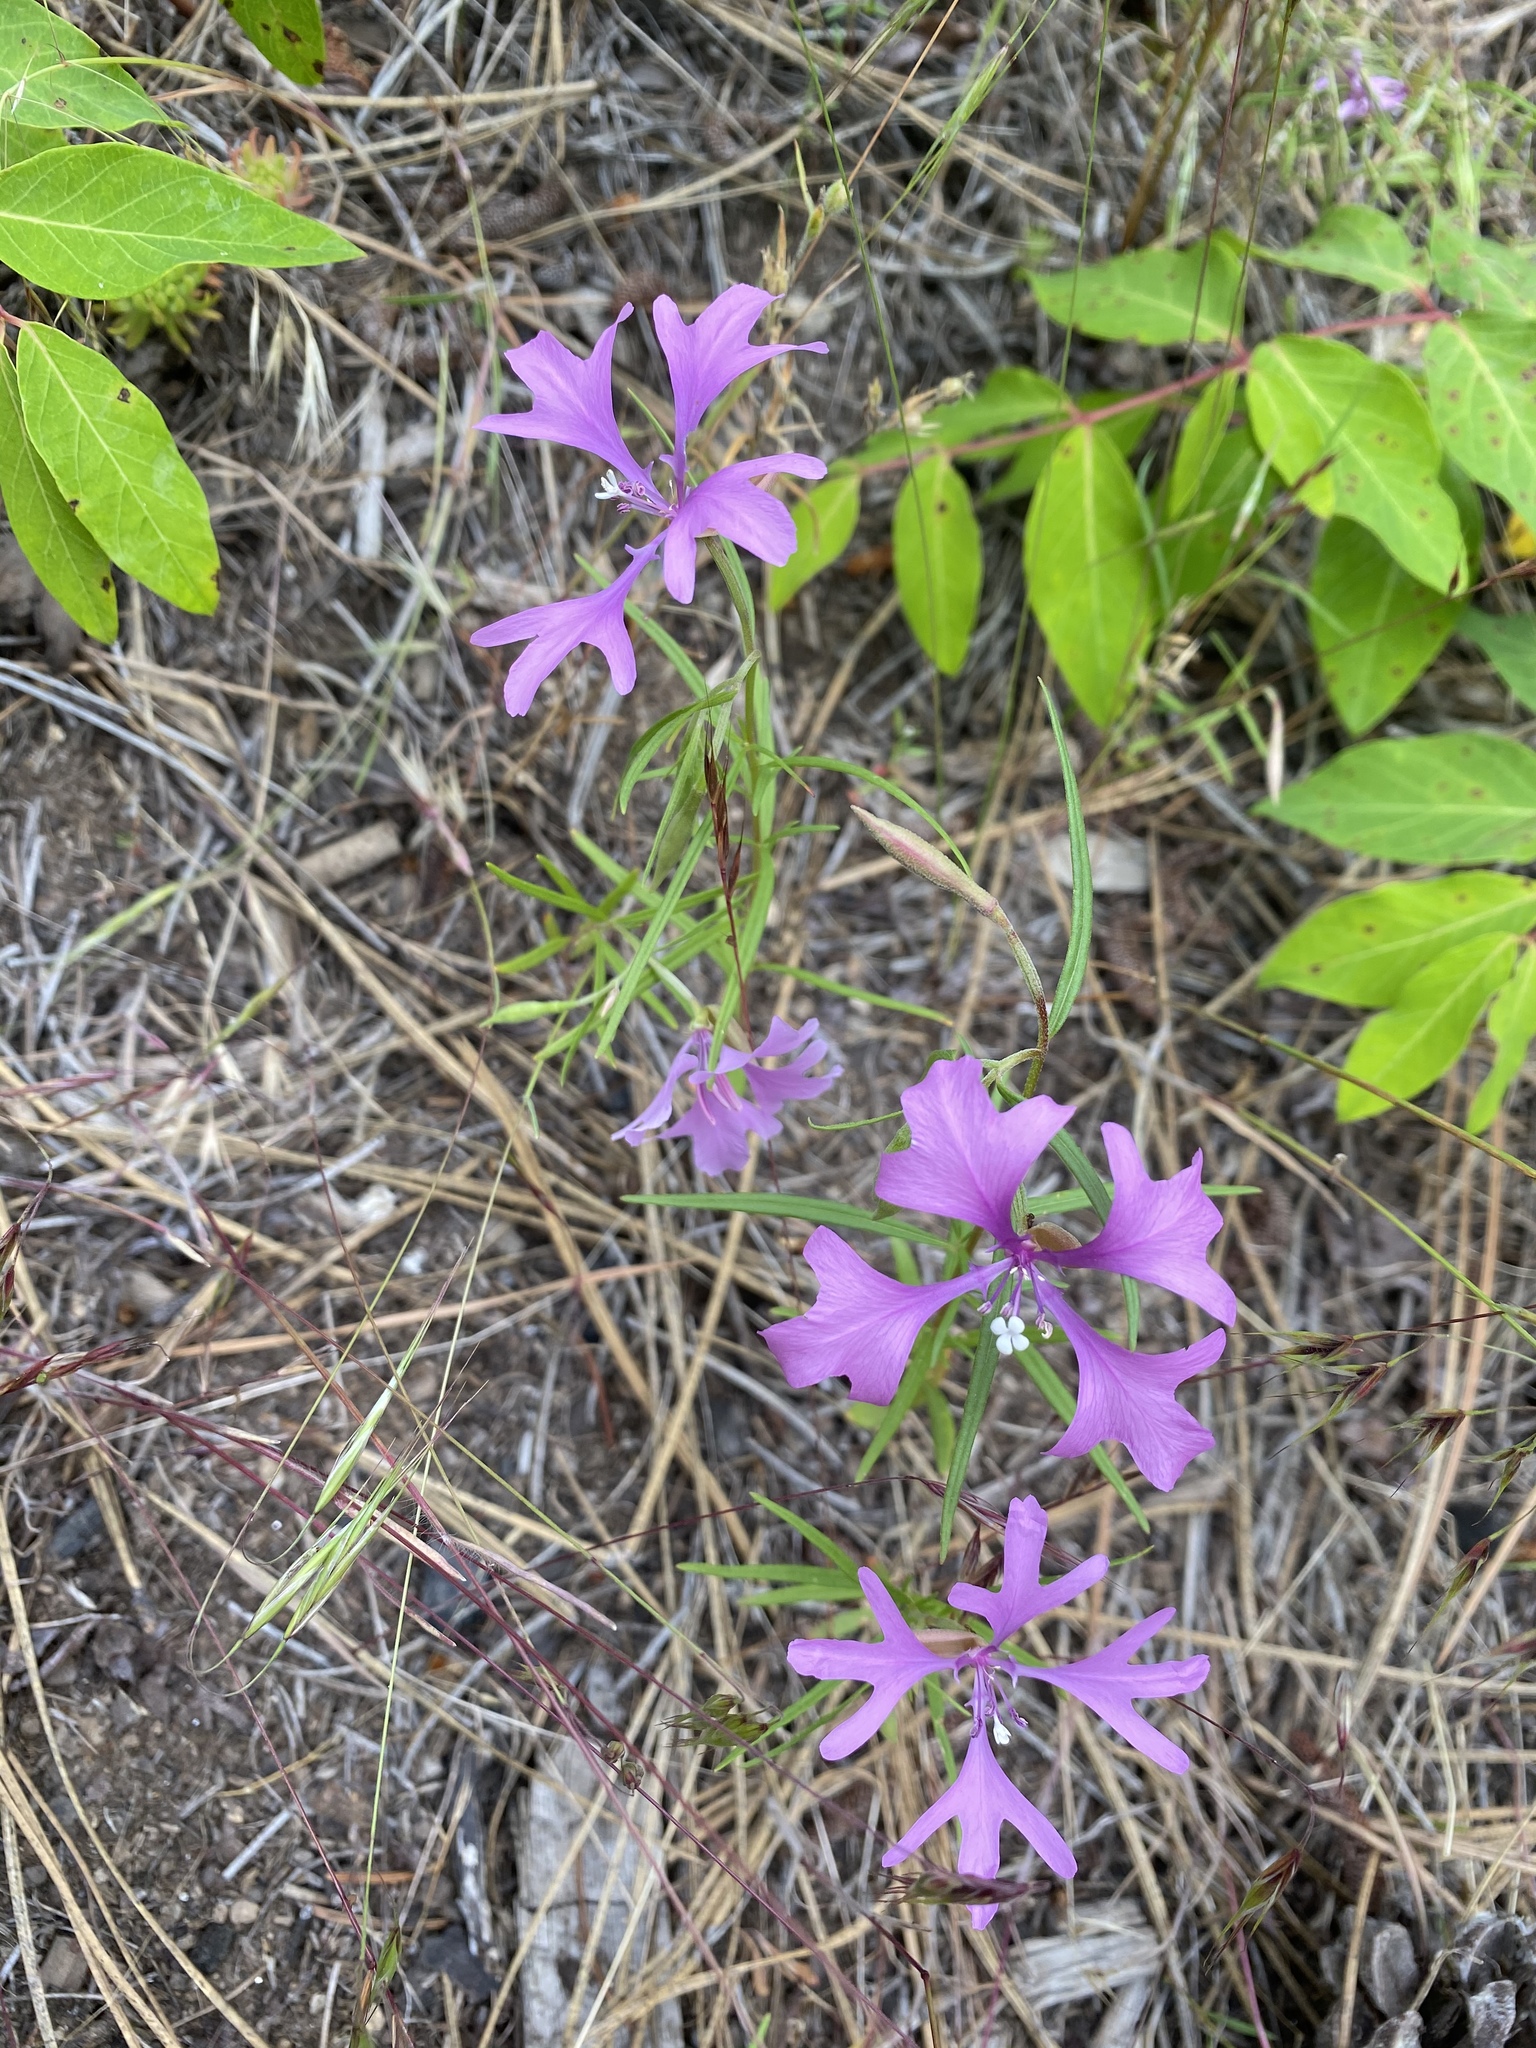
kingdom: Plantae
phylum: Tracheophyta
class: Magnoliopsida
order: Myrtales
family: Onagraceae
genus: Clarkia
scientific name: Clarkia pulchella
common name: Deer horn
